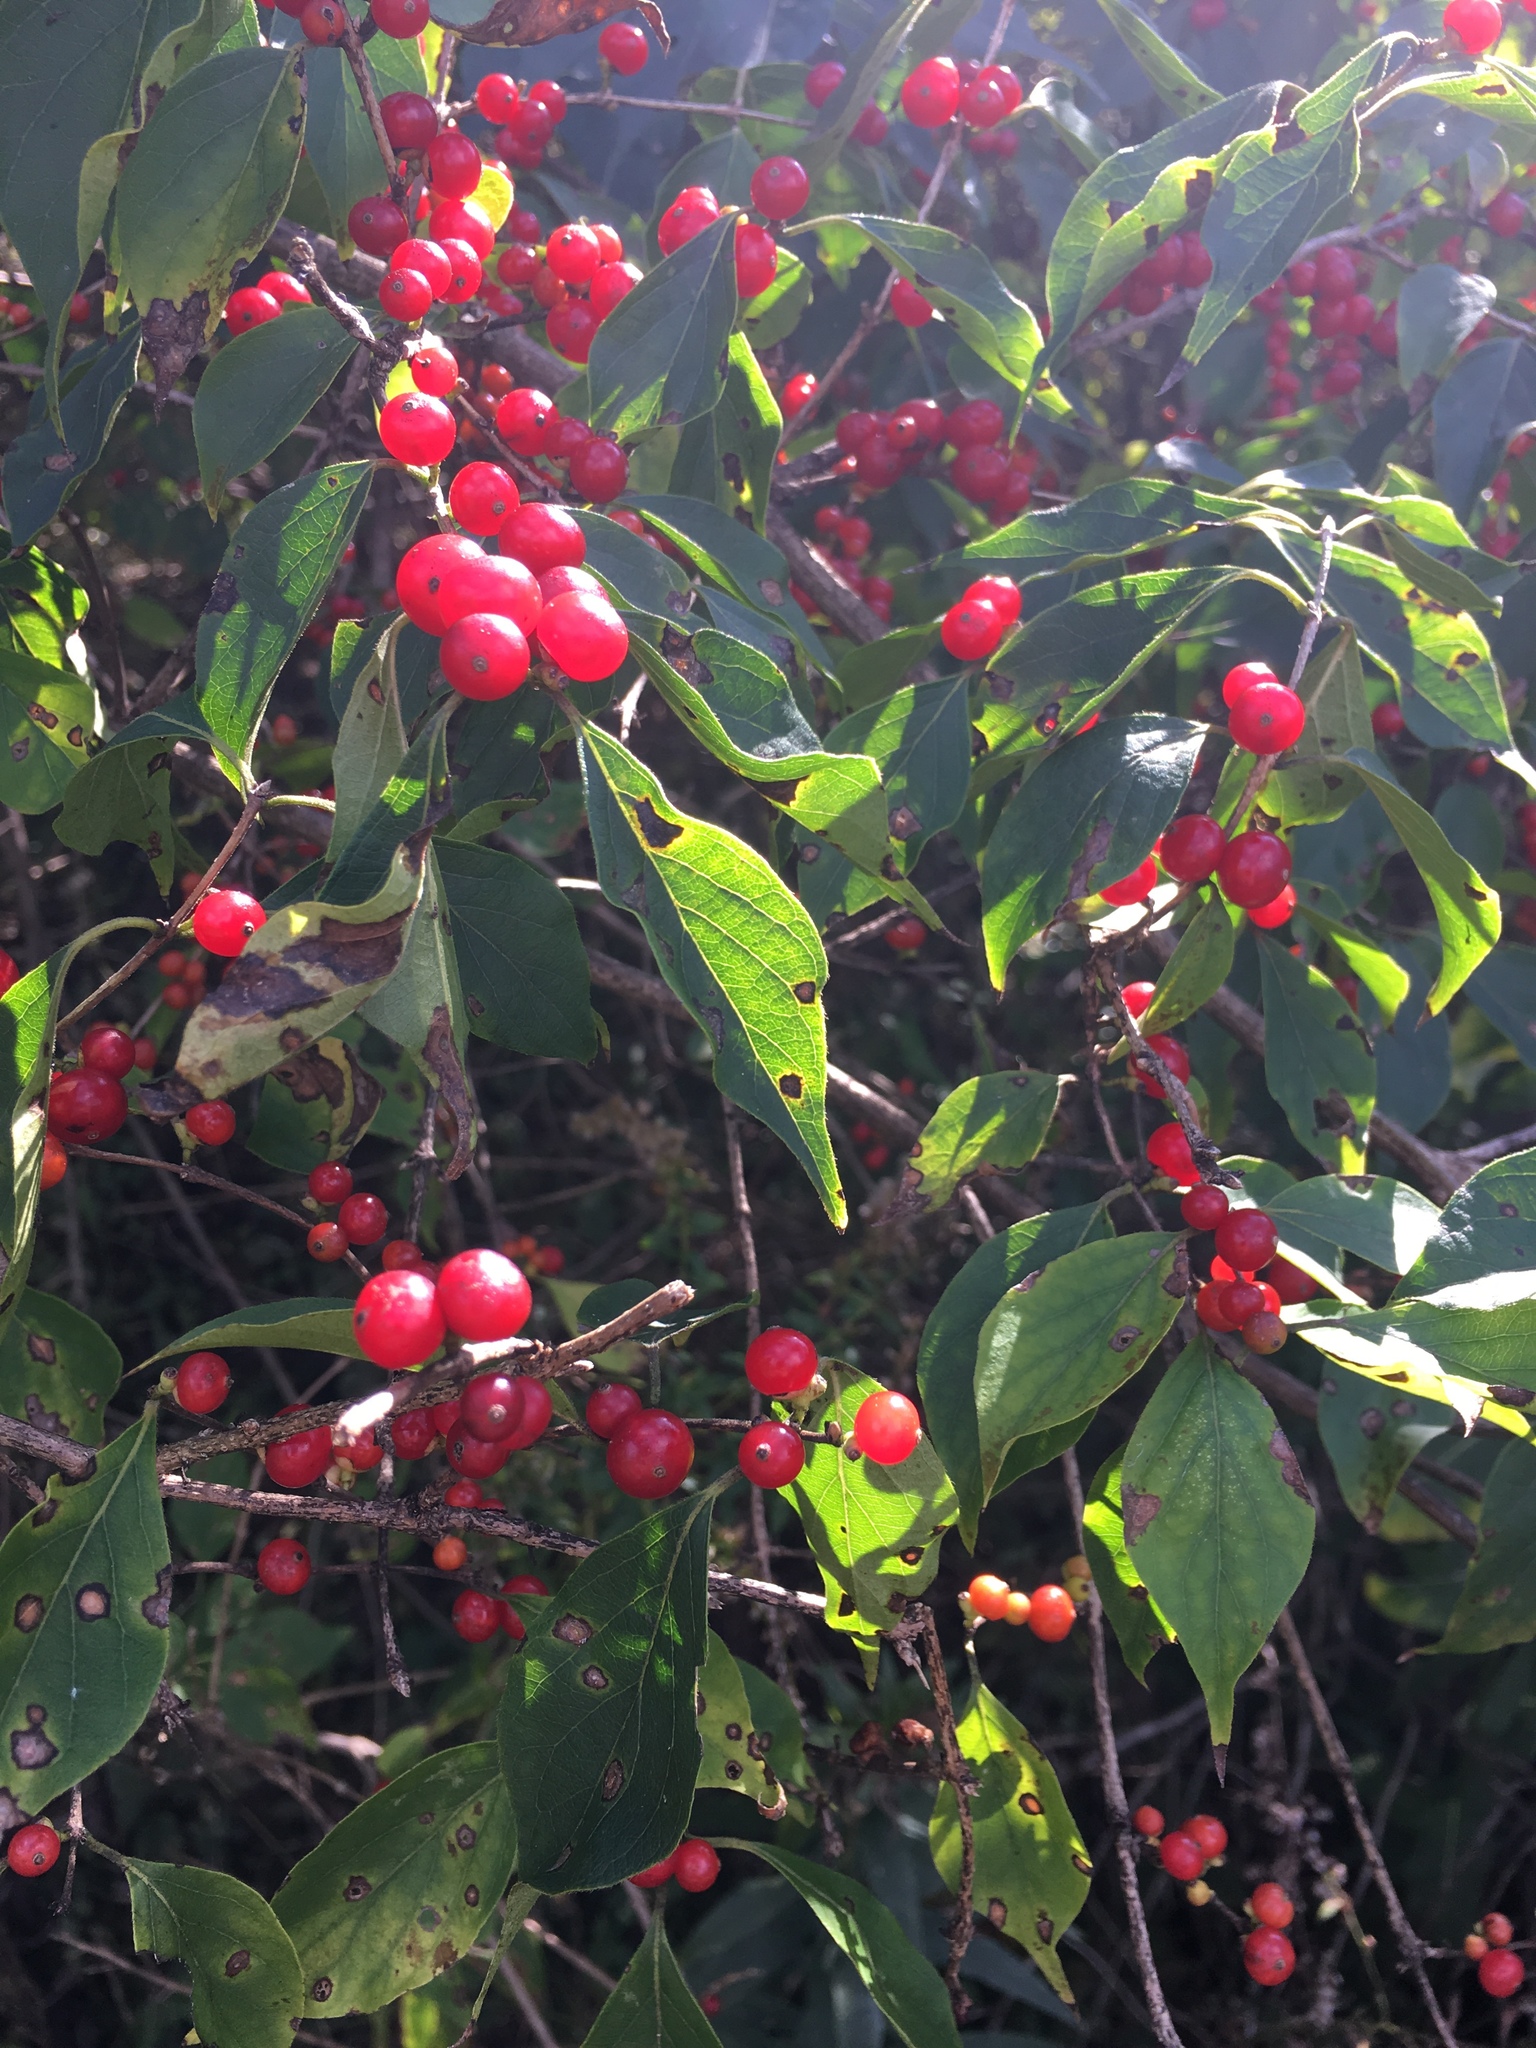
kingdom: Plantae
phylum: Tracheophyta
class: Magnoliopsida
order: Dipsacales
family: Caprifoliaceae
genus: Lonicera
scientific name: Lonicera maackii
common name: Amur honeysuckle
